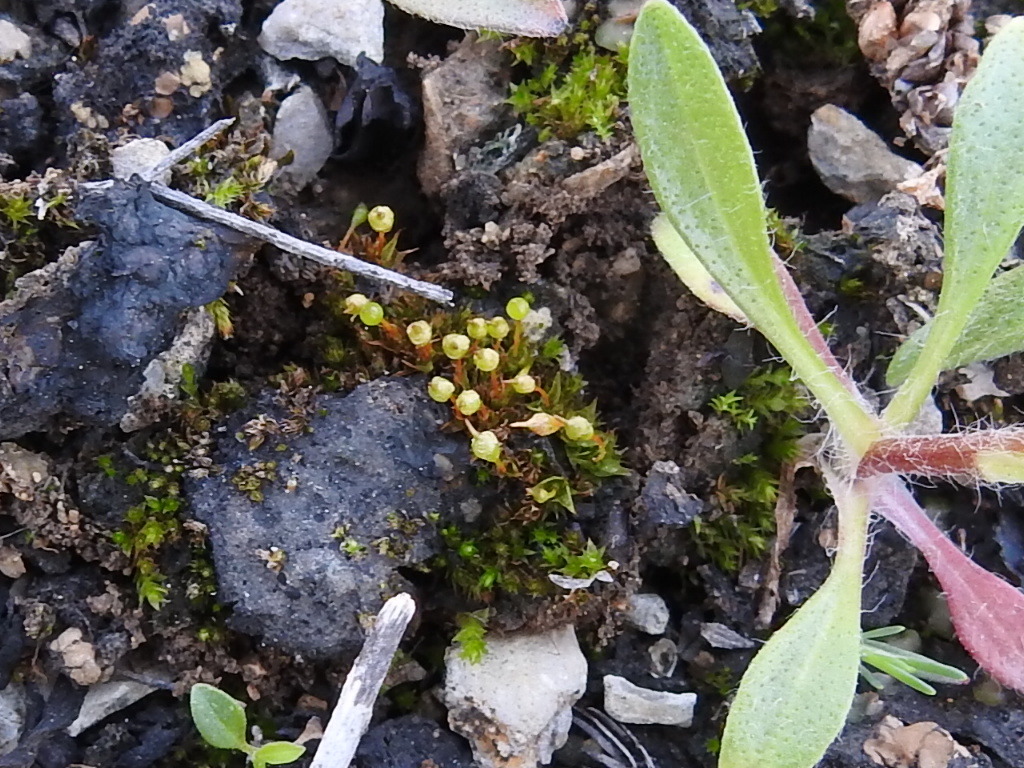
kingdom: Plantae
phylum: Bryophyta
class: Bryopsida
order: Funariales
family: Funariaceae
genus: Physcomitrium
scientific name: Physcomitrium pyriforme
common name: Common bladder-moss
